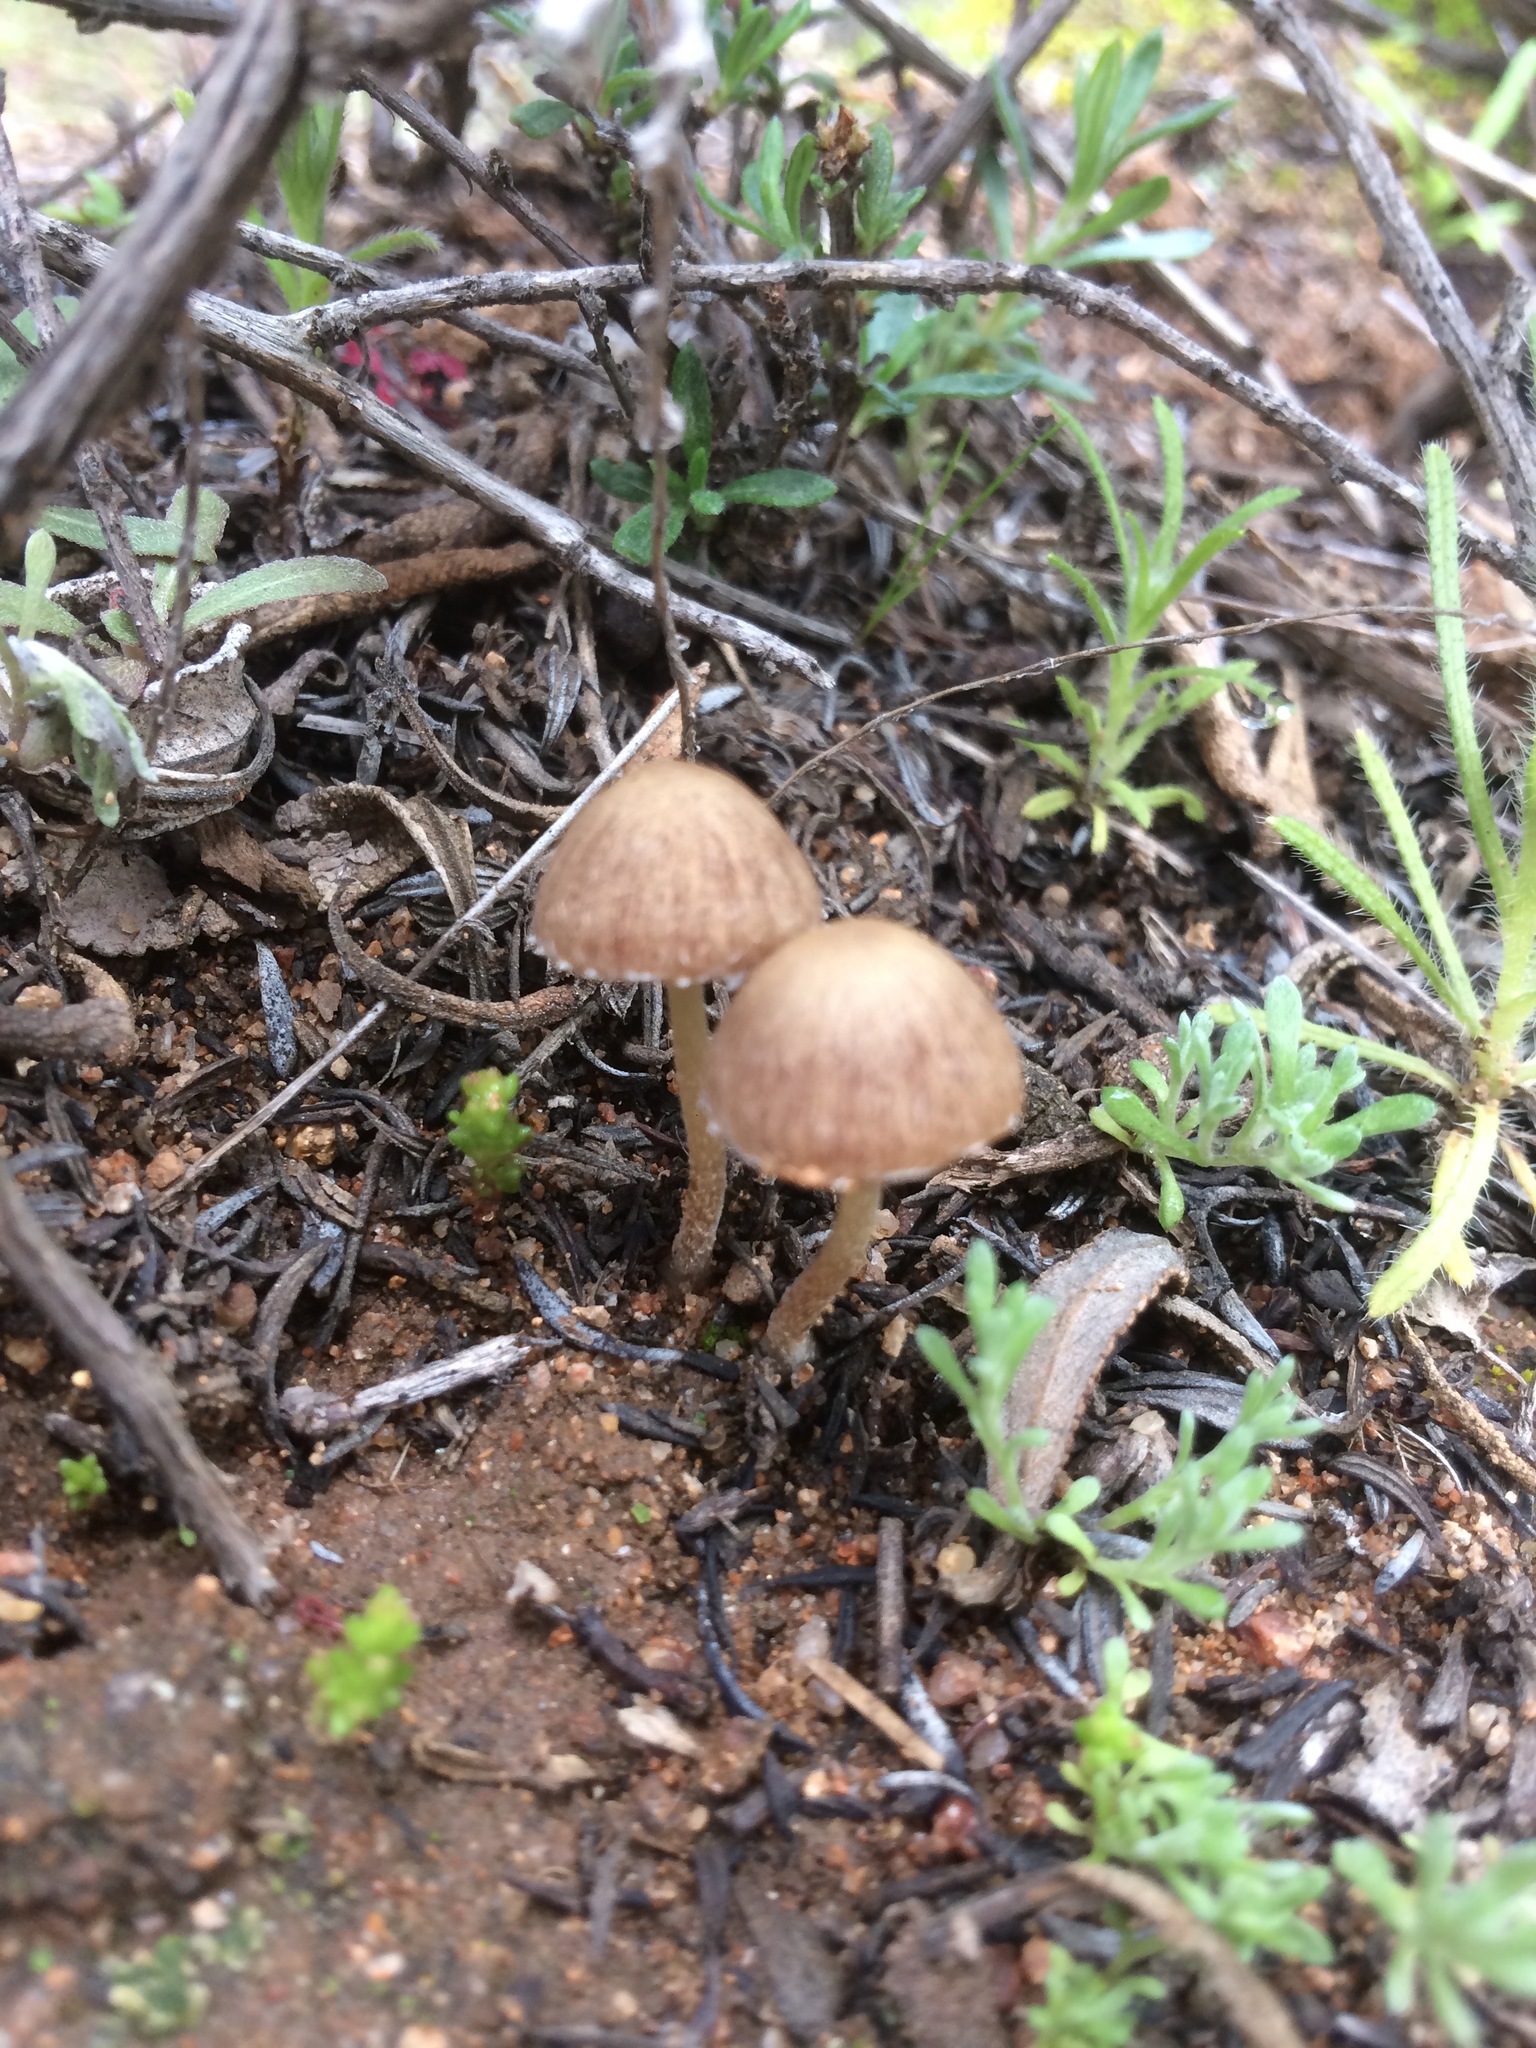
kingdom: Fungi
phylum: Basidiomycota
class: Agaricomycetes
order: Agaricales
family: Psathyrellaceae
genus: Psathyrella
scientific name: Psathyrella laricina
